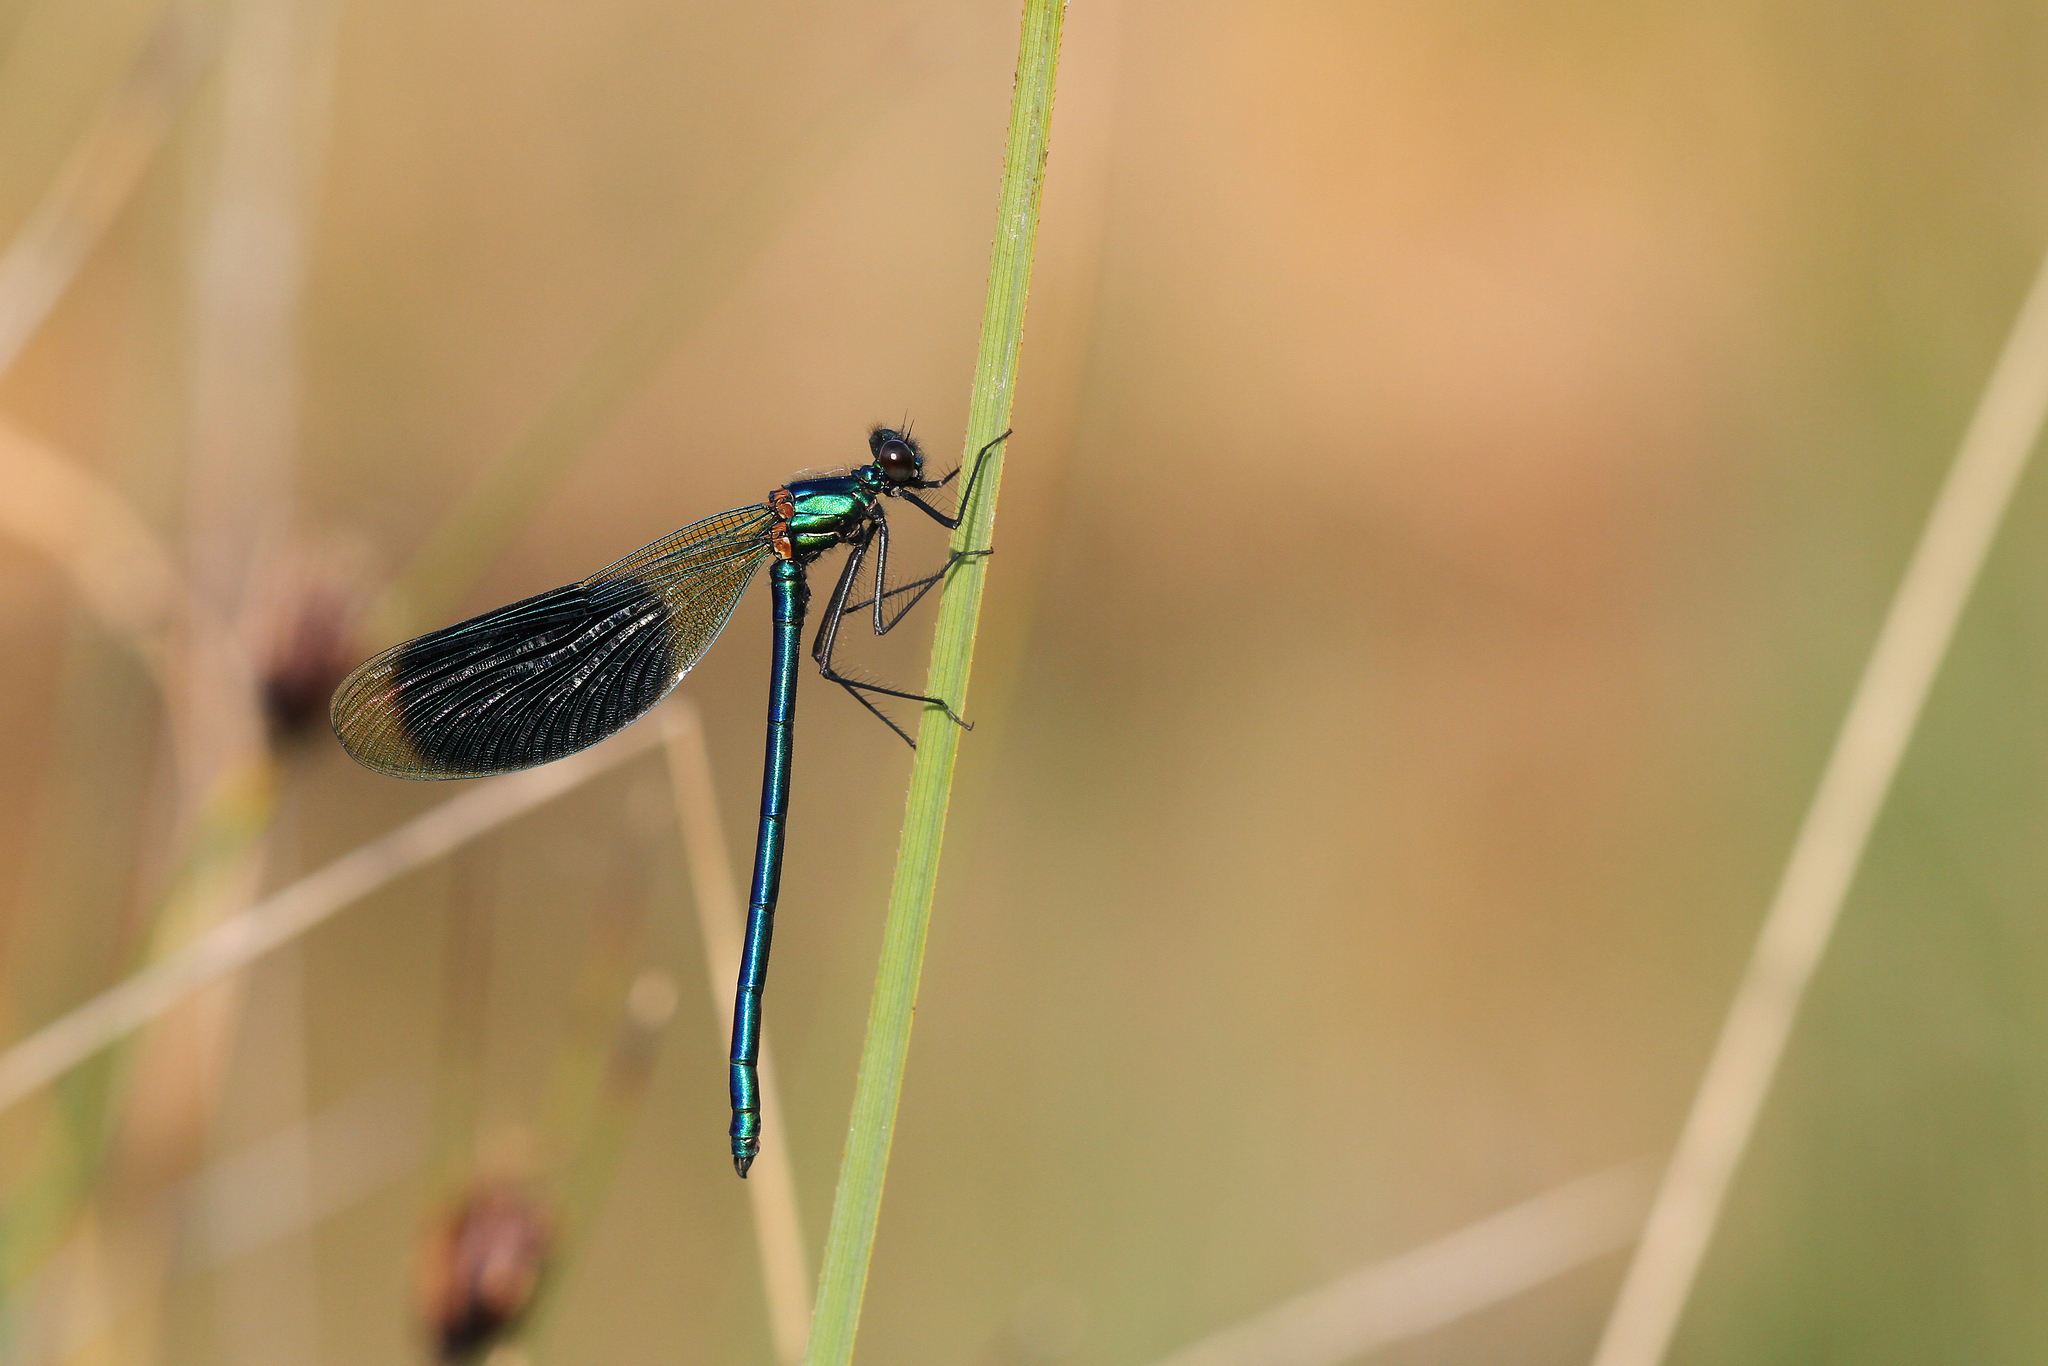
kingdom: Animalia
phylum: Arthropoda
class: Insecta
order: Odonata
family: Calopterygidae
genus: Calopteryx
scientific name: Calopteryx splendens
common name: Banded demoiselle
